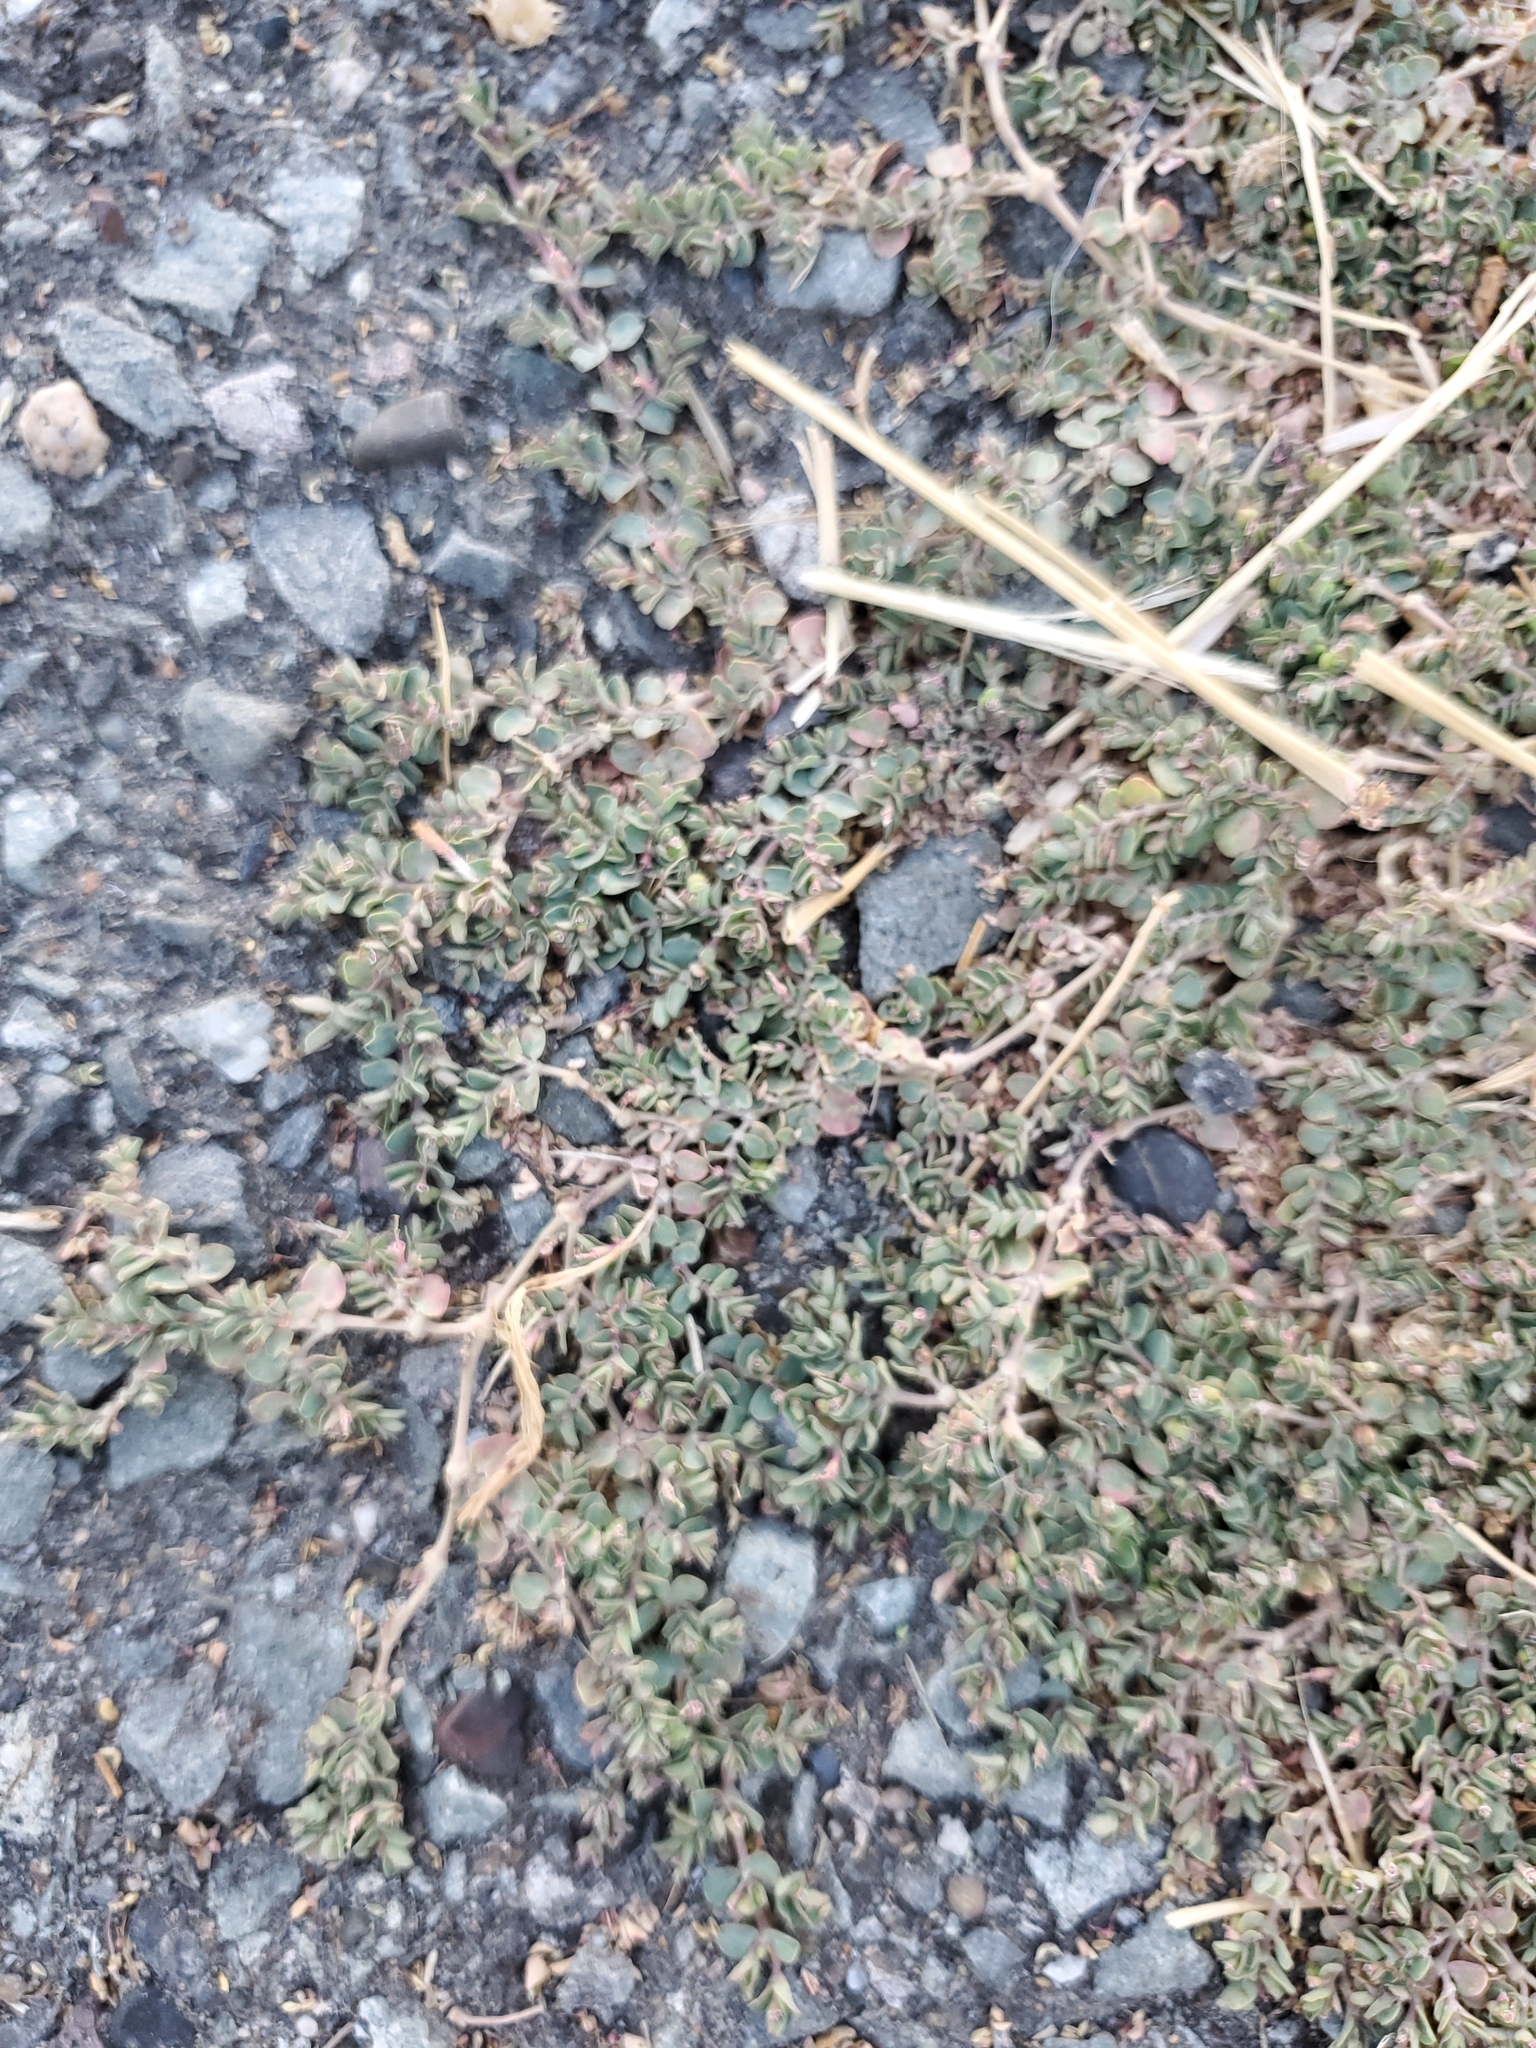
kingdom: Plantae
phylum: Tracheophyta
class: Magnoliopsida
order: Malpighiales
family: Euphorbiaceae
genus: Euphorbia
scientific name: Euphorbia serpens
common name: Matted sandmat
